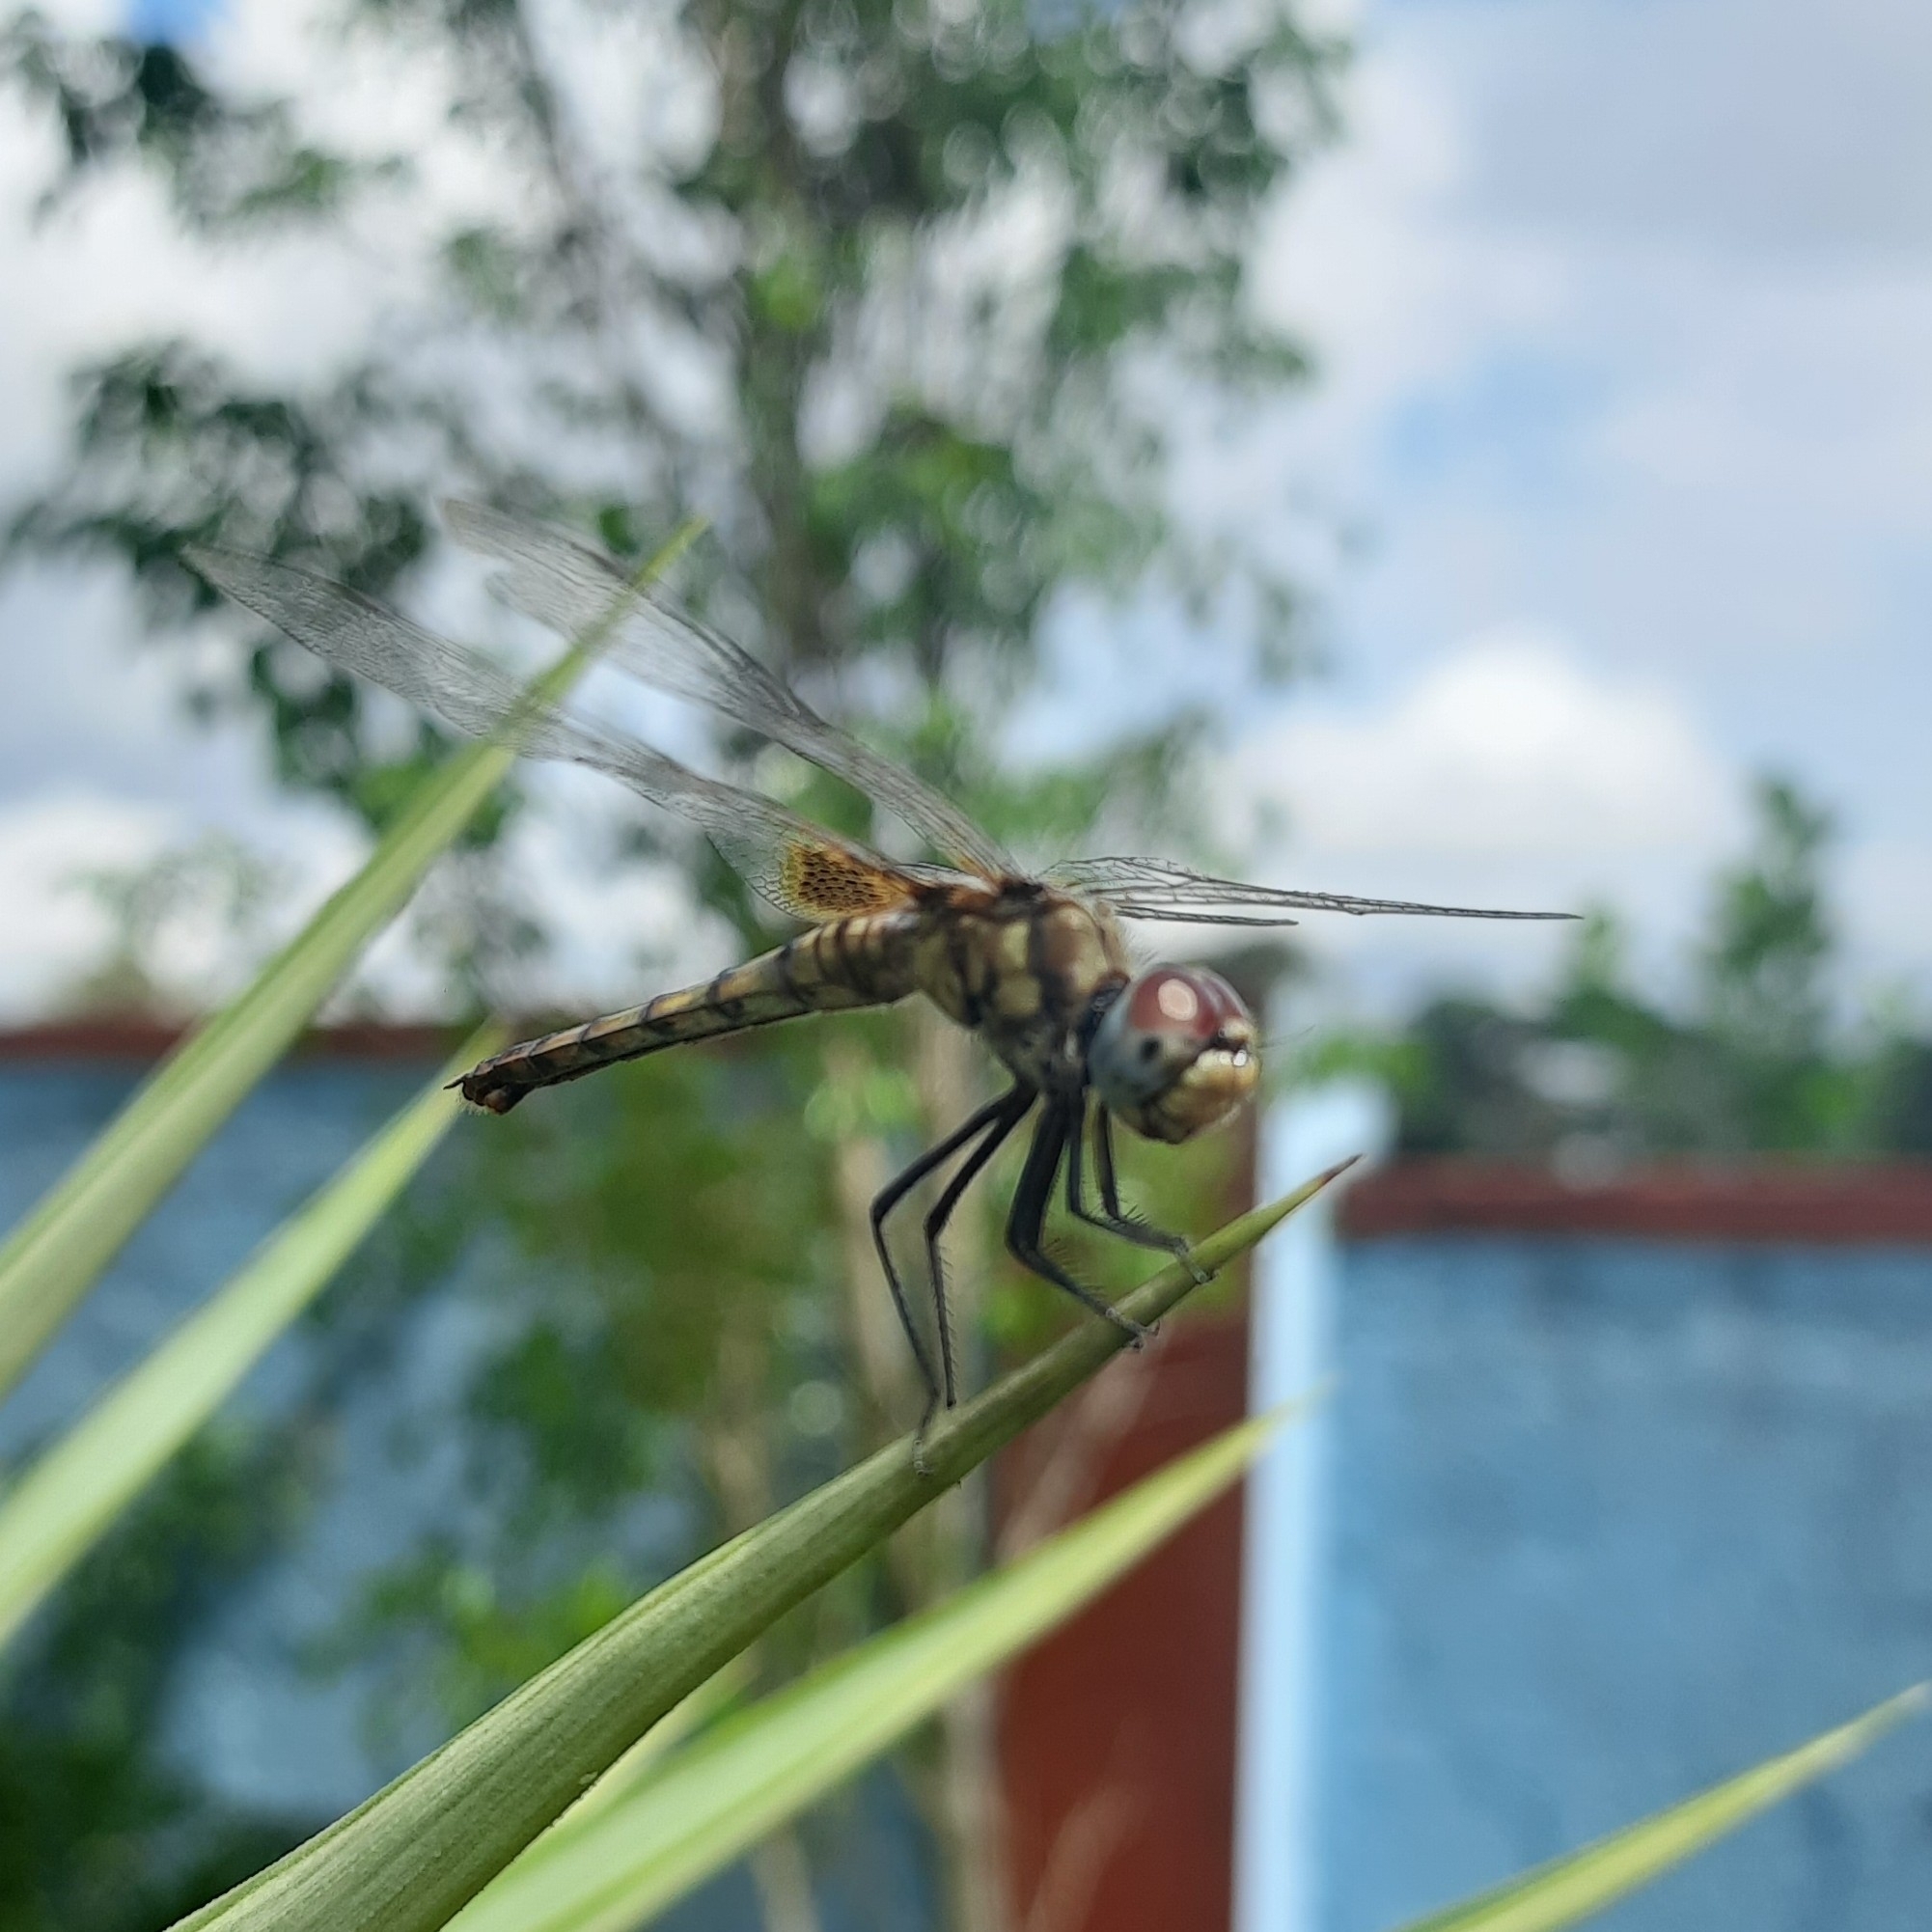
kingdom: Animalia
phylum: Arthropoda
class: Insecta
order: Odonata
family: Libellulidae
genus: Urothemis
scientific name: Urothemis signata
